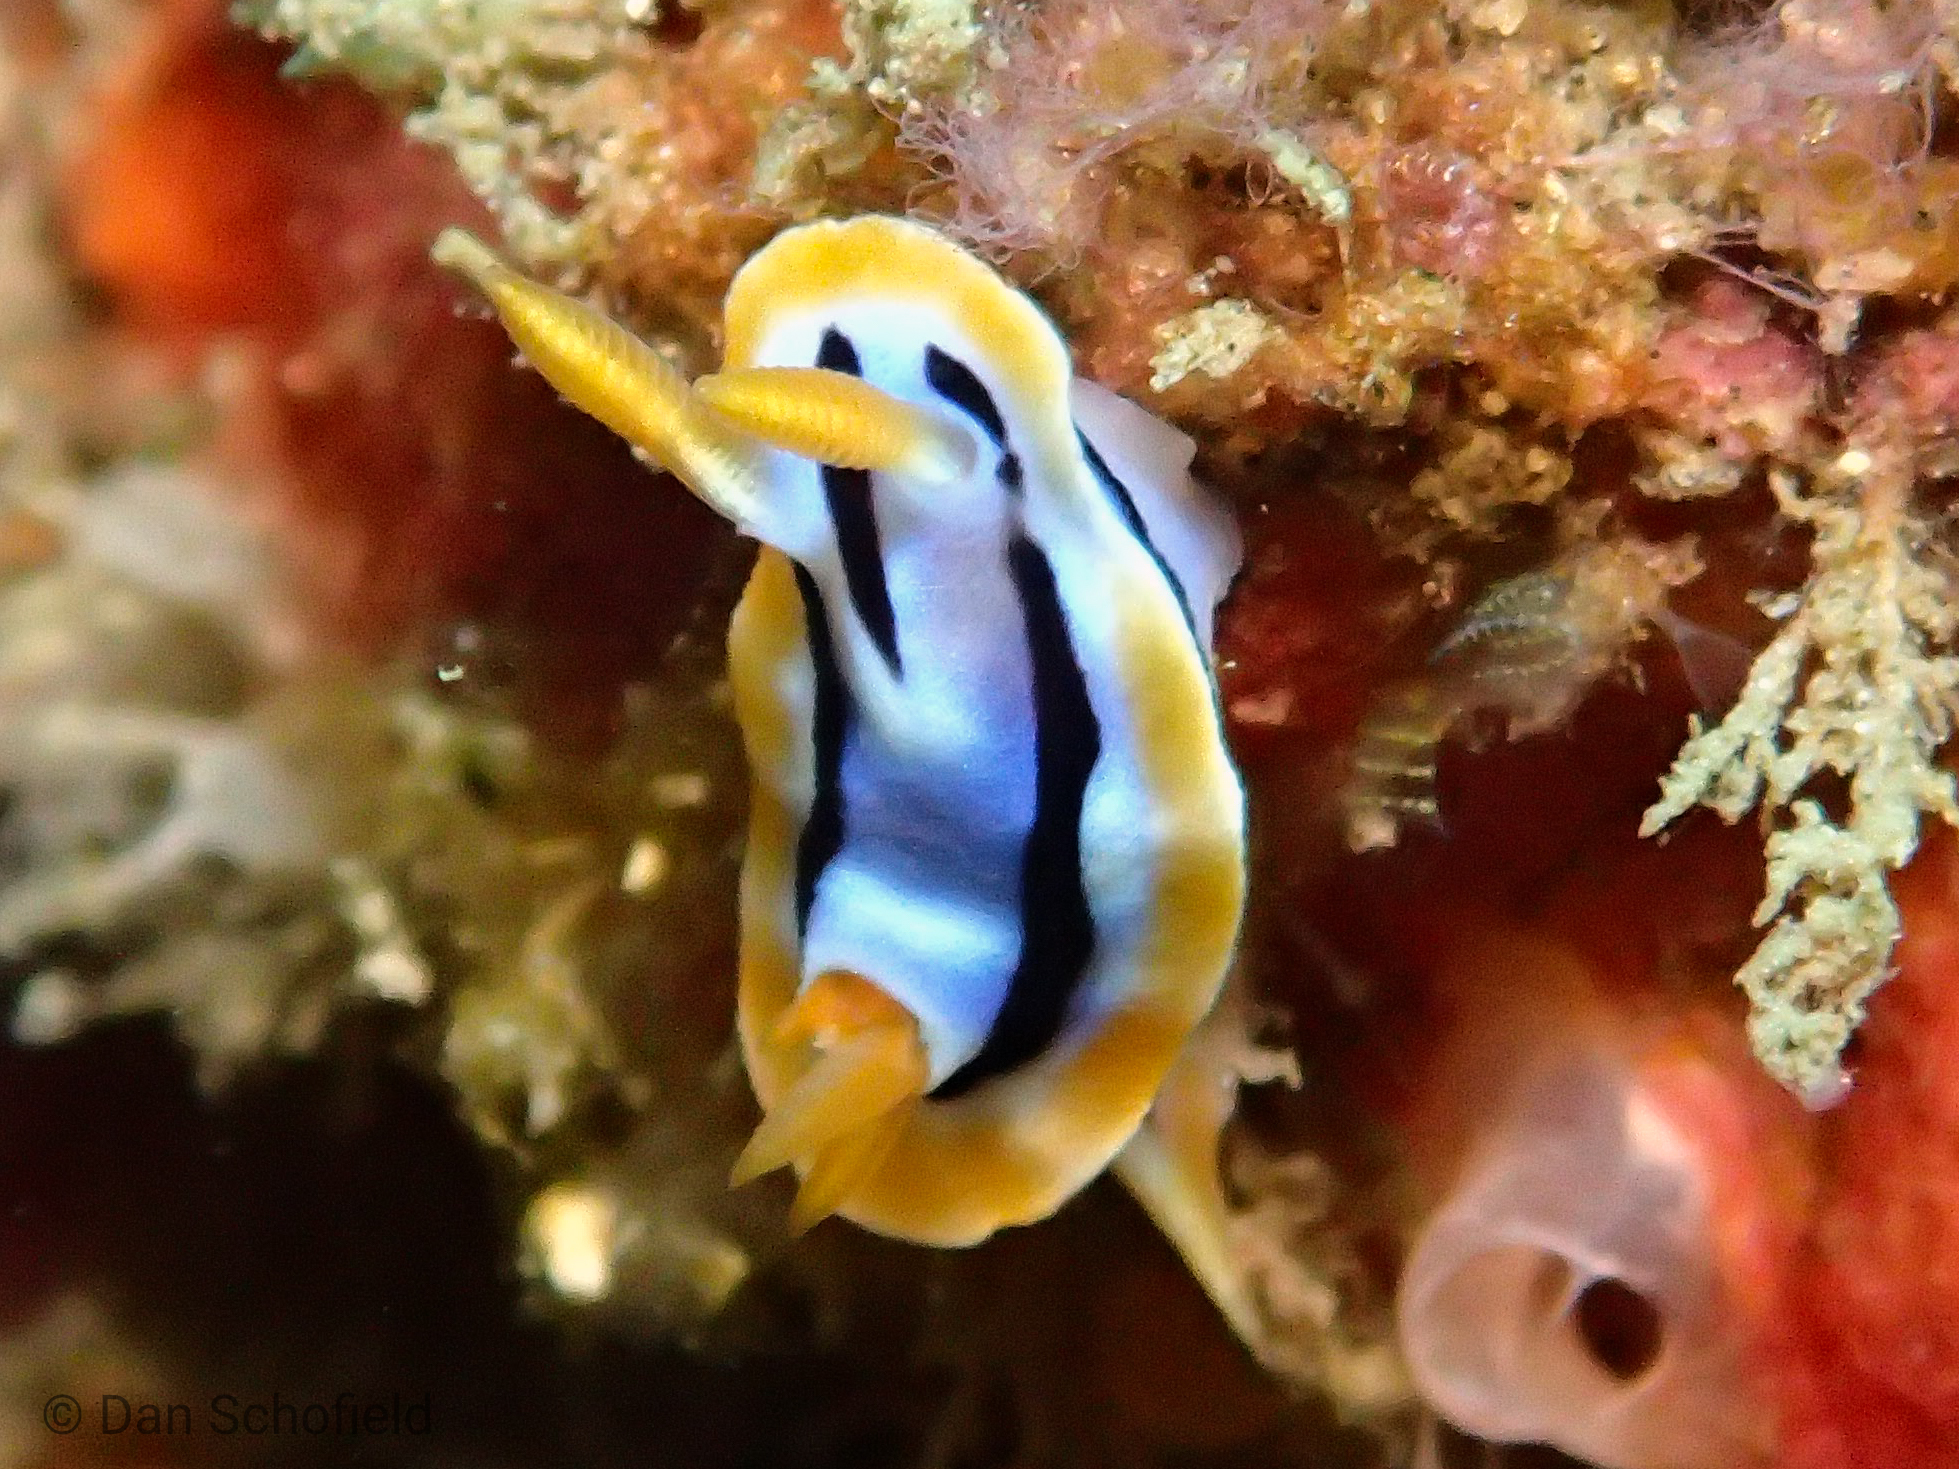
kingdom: Animalia
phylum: Mollusca
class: Gastropoda
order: Nudibranchia
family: Chromodorididae
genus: Chromodoris
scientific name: Chromodoris strigata
